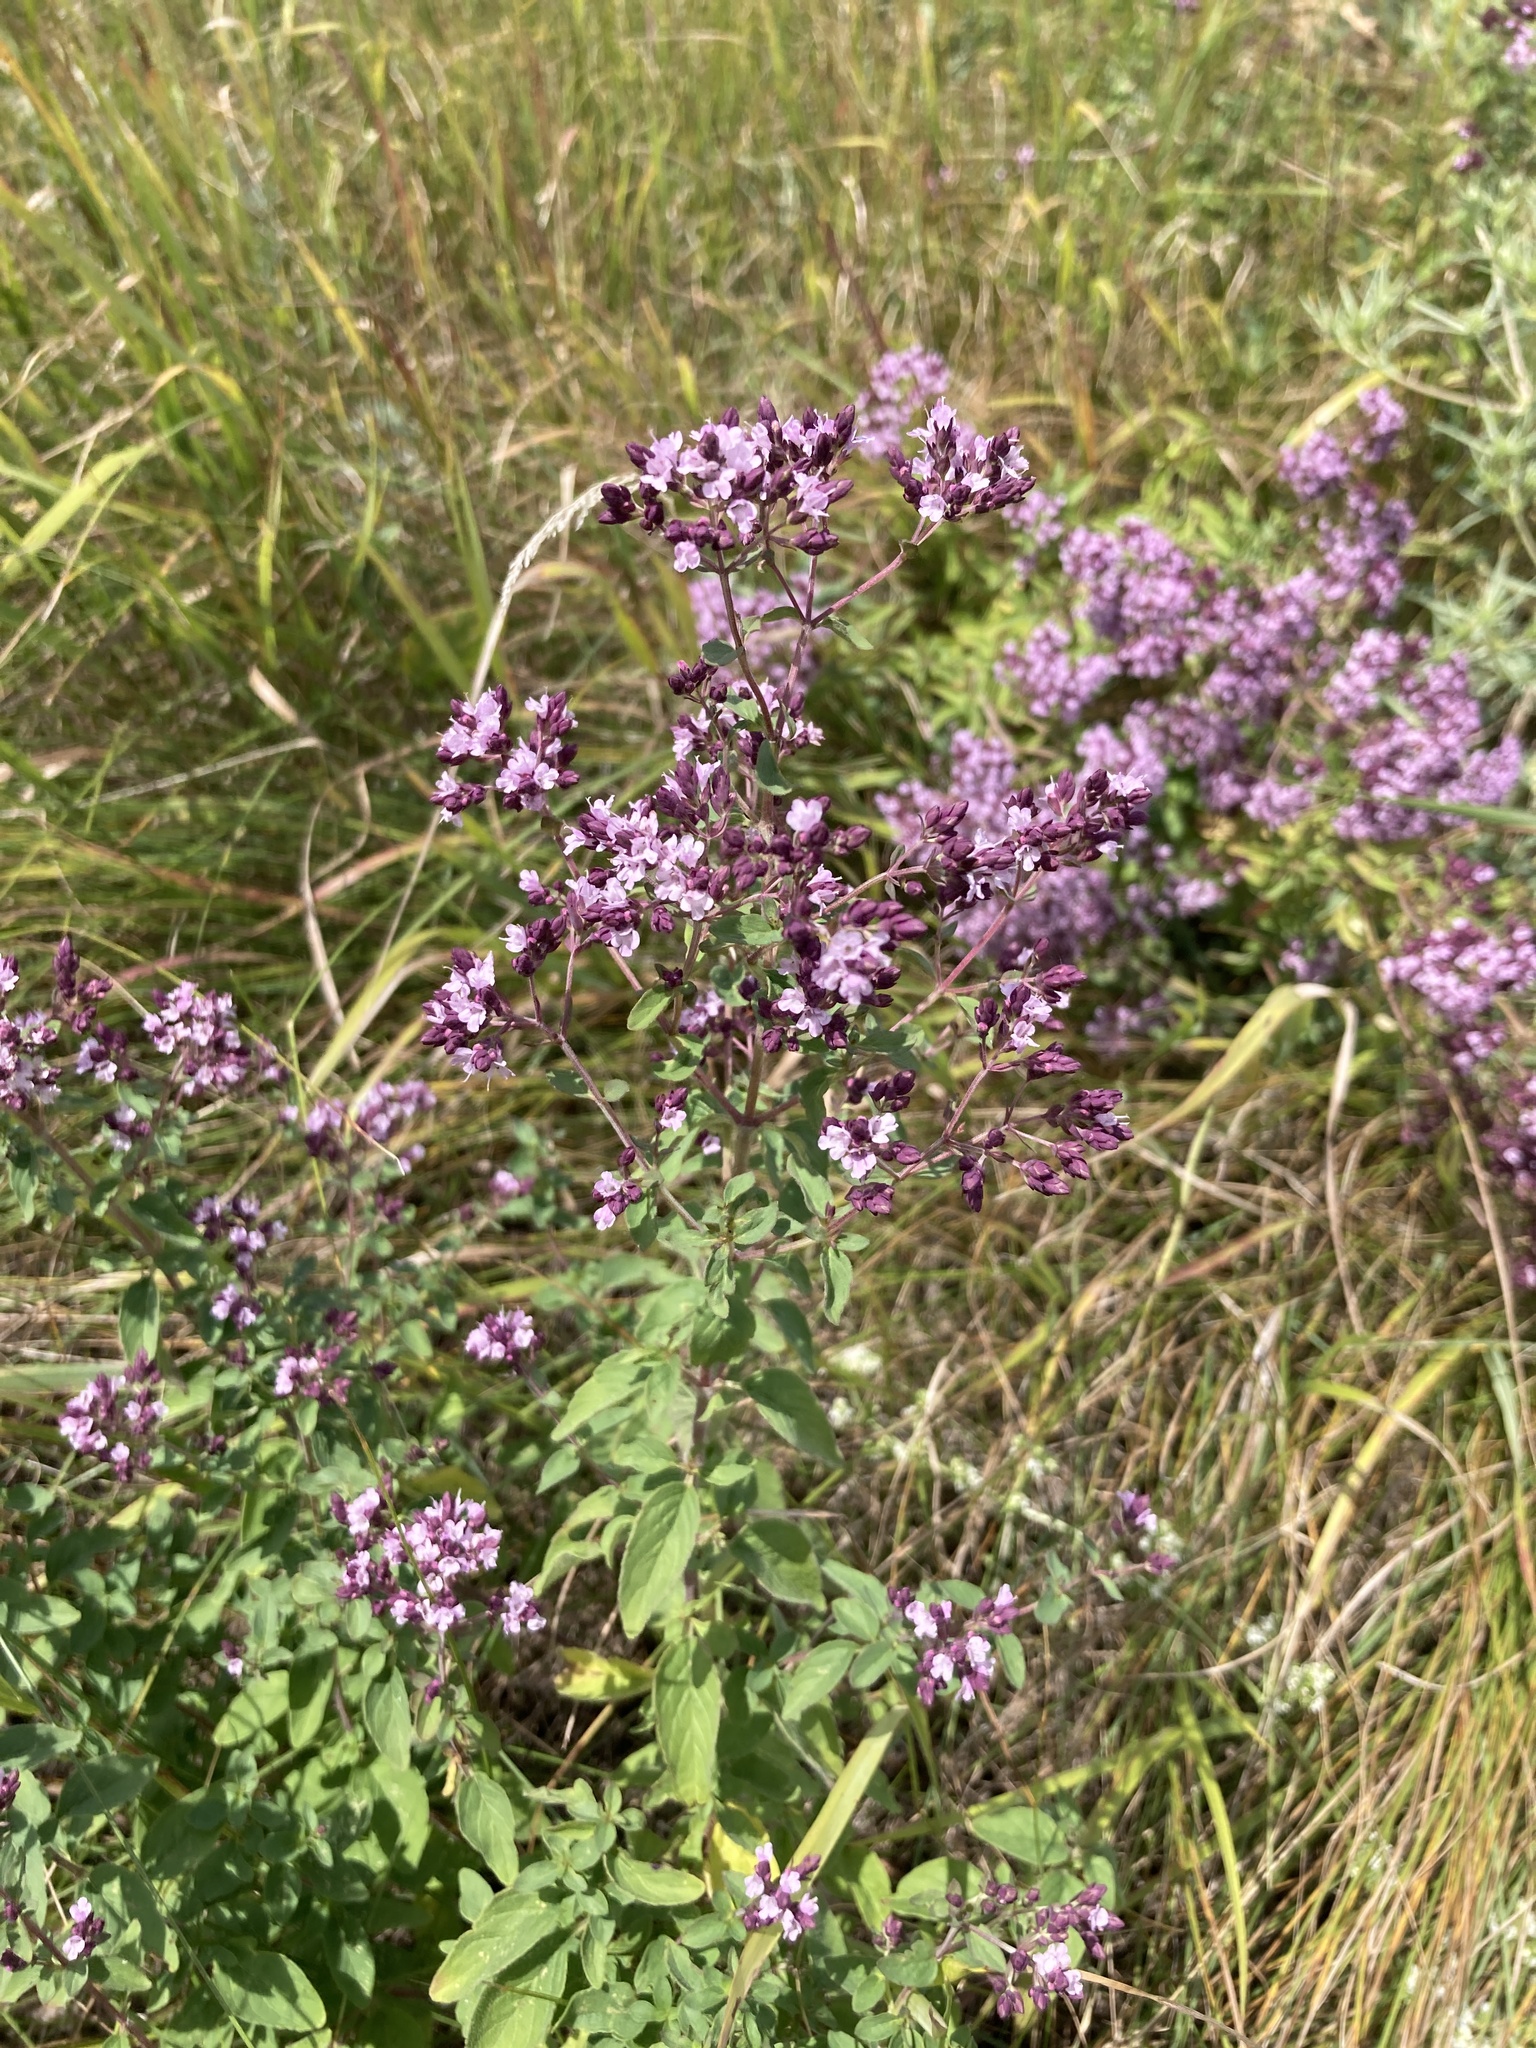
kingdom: Plantae
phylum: Tracheophyta
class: Magnoliopsida
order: Lamiales
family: Lamiaceae
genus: Origanum
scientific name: Origanum vulgare
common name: Wild marjoram
